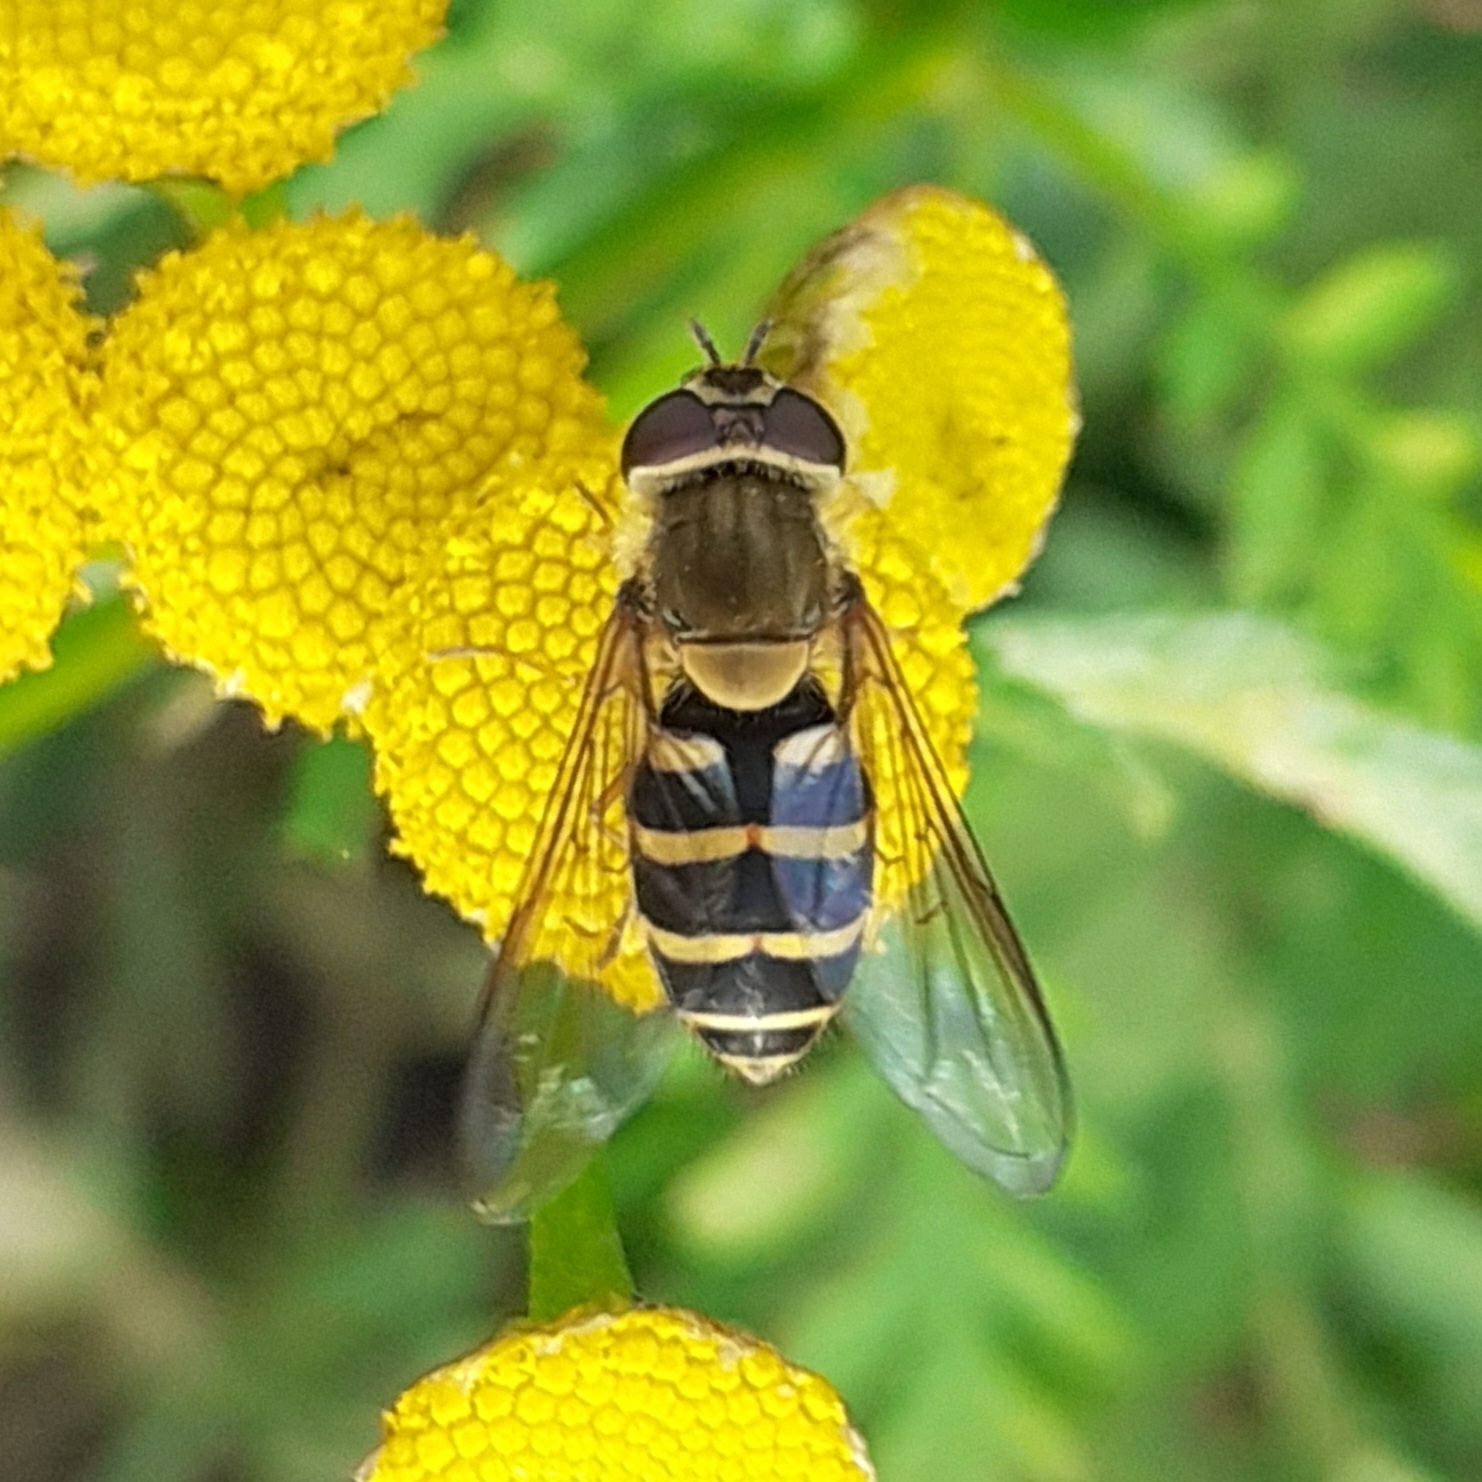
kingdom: Animalia
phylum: Arthropoda
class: Insecta
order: Diptera
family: Syrphidae
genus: Syrphus
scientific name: Syrphus
